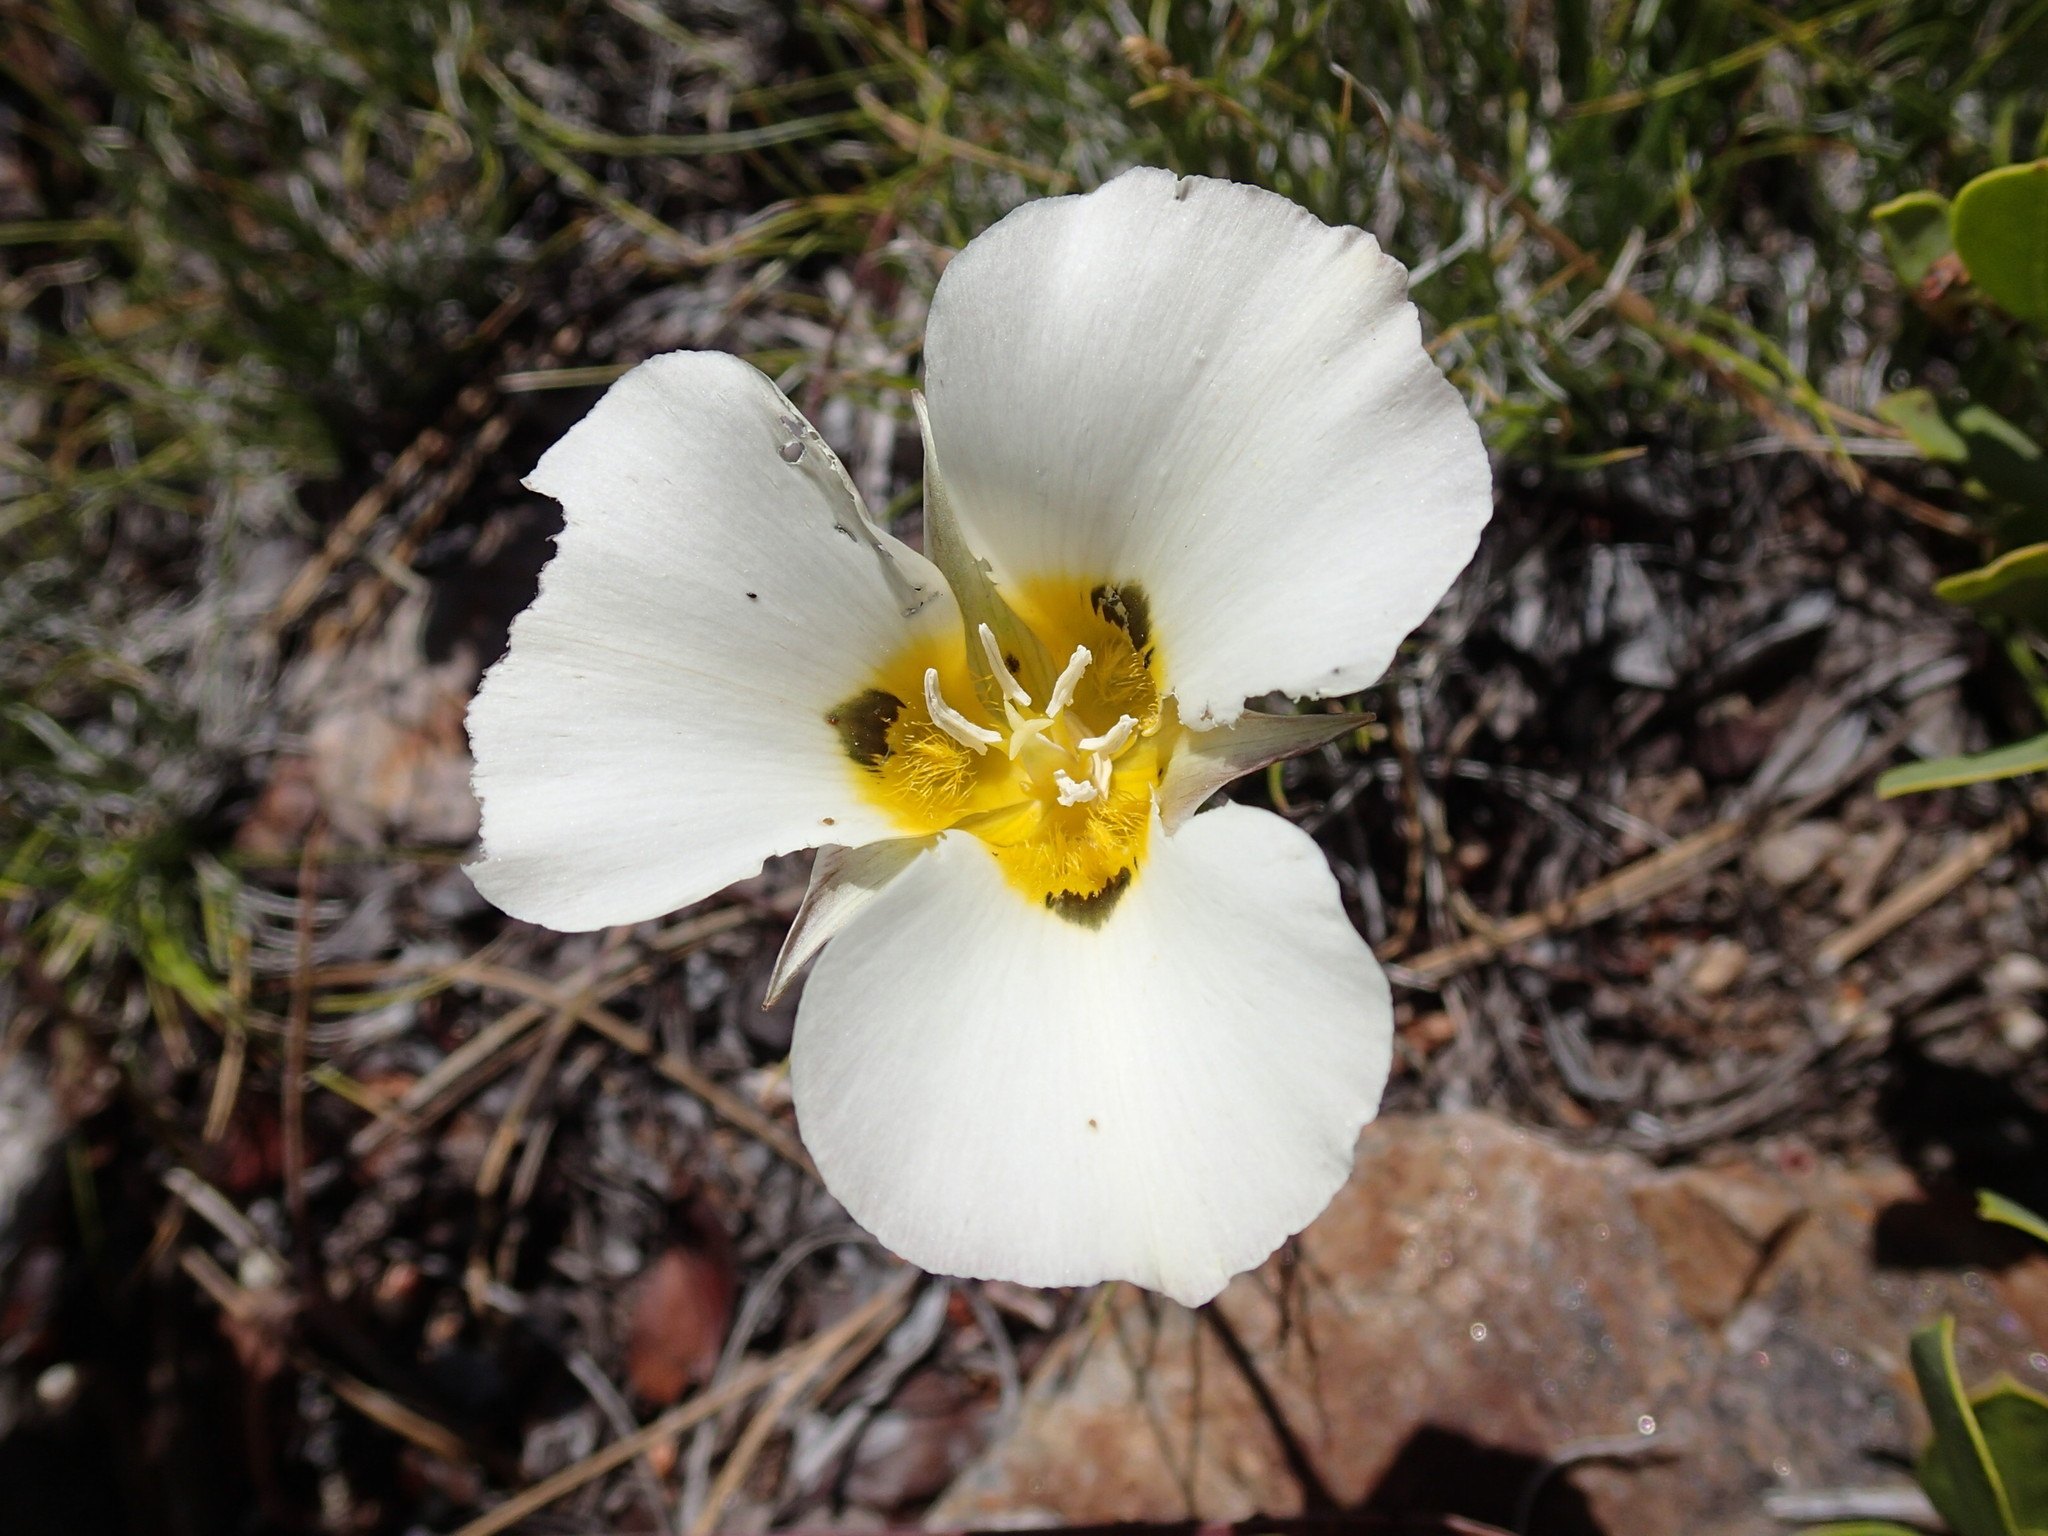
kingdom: Plantae
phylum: Tracheophyta
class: Liliopsida
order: Liliales
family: Liliaceae
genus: Calochortus
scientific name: Calochortus leichtlinii
